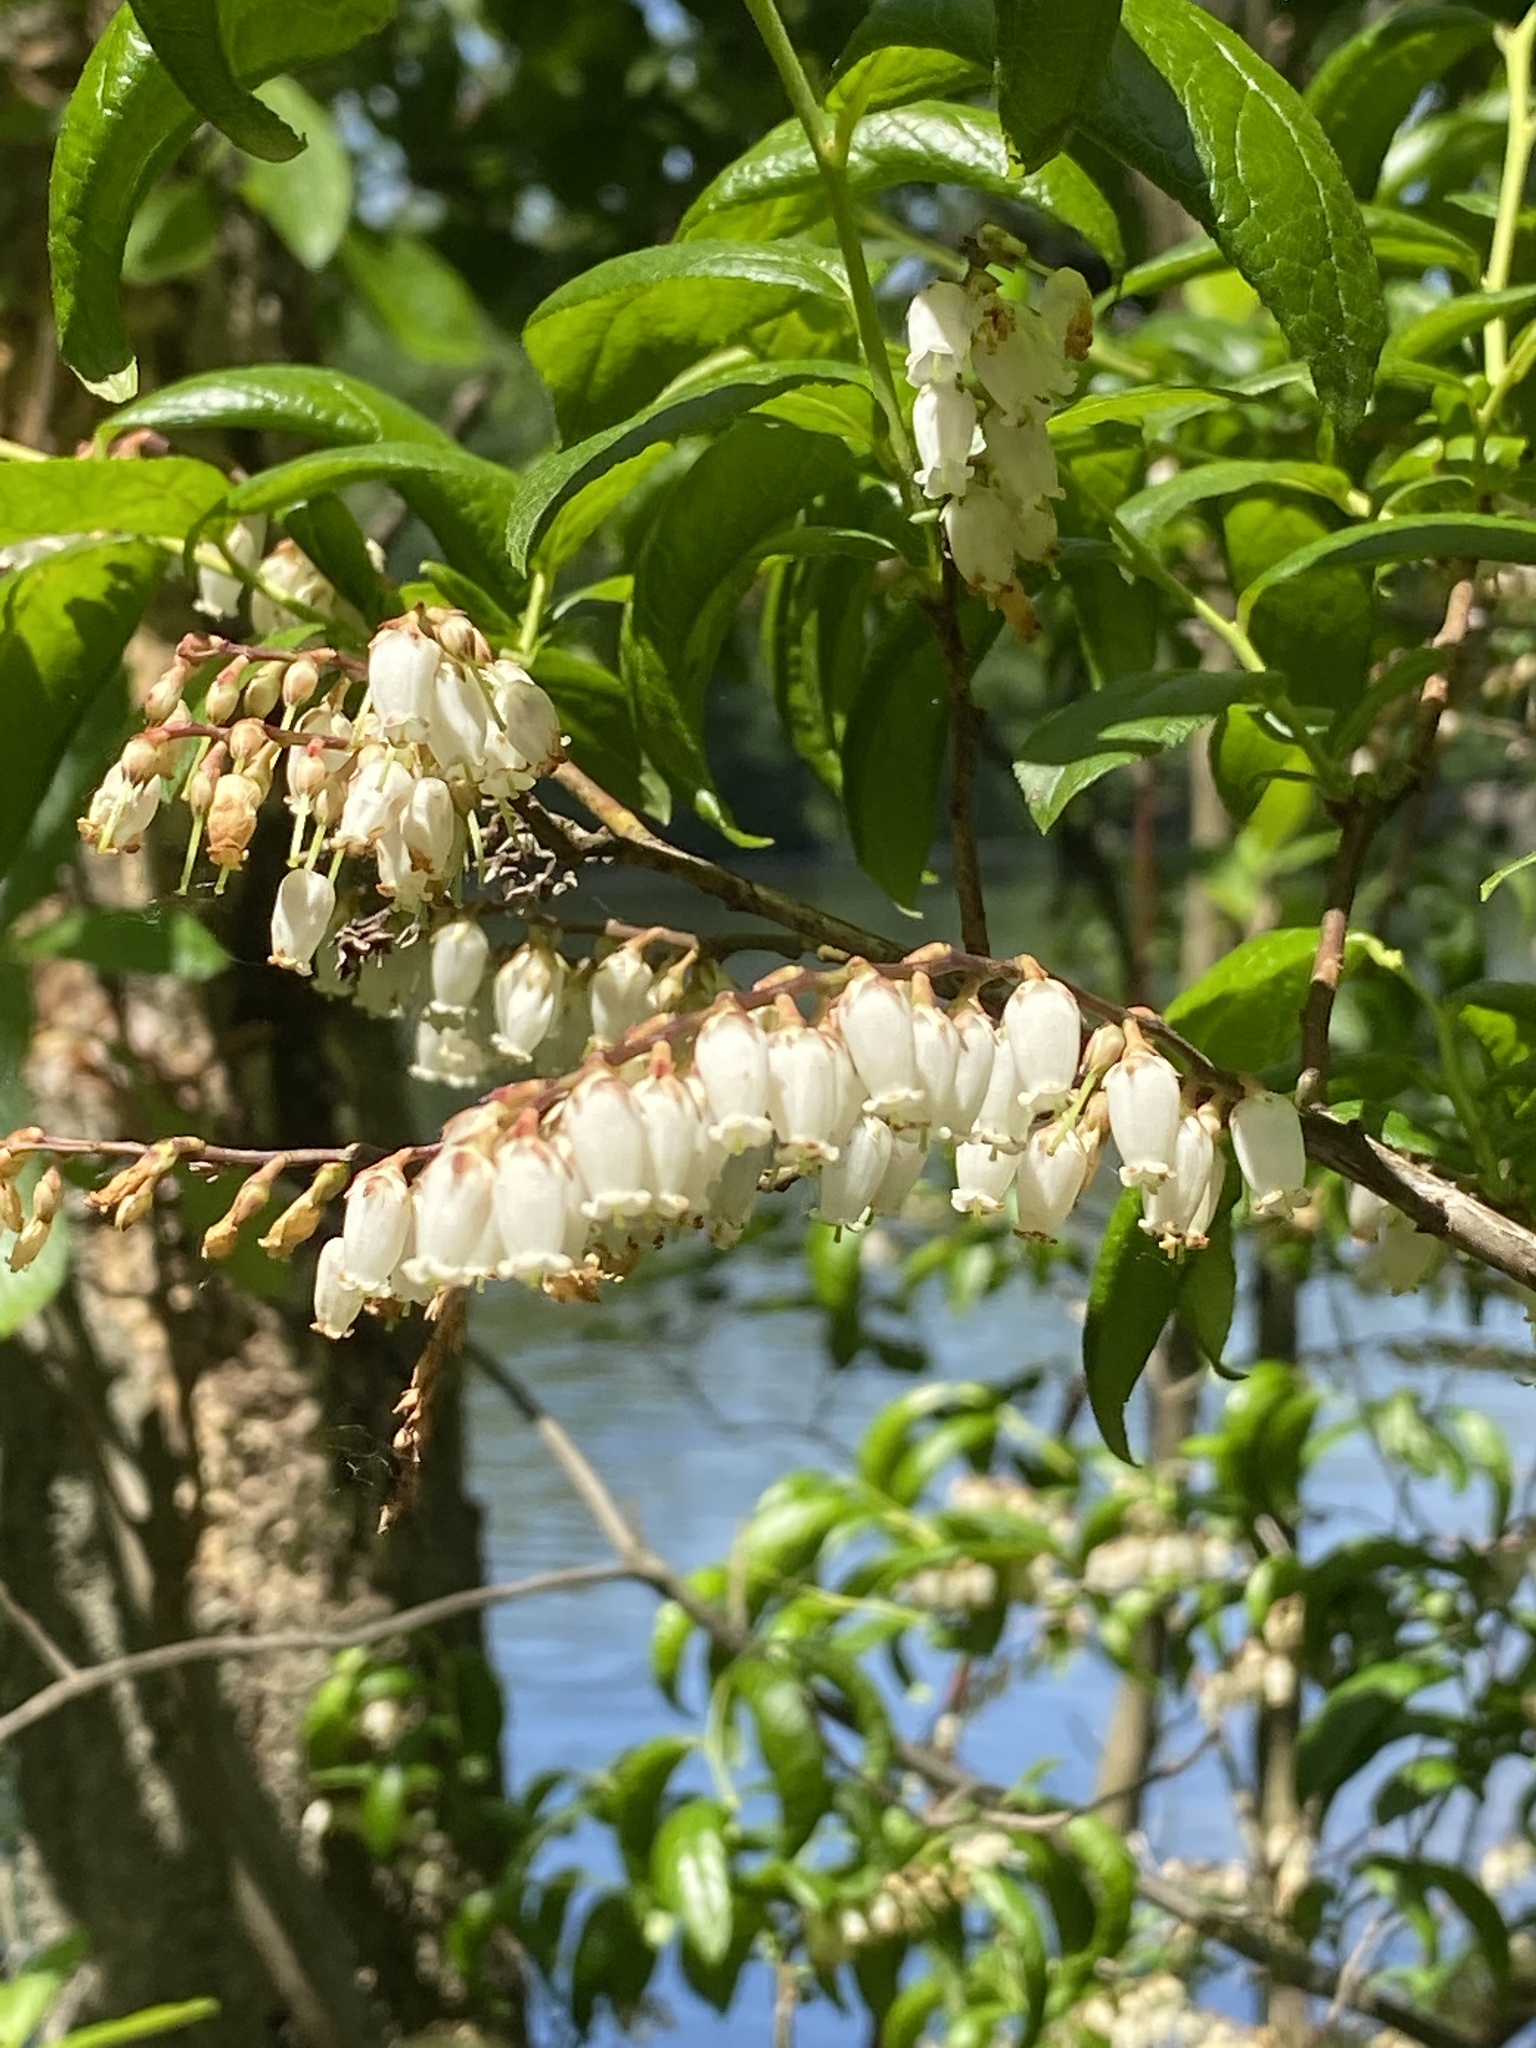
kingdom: Plantae
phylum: Tracheophyta
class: Magnoliopsida
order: Ericales
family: Ericaceae
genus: Eubotrys
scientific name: Eubotrys racemosa
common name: Fetterbush
